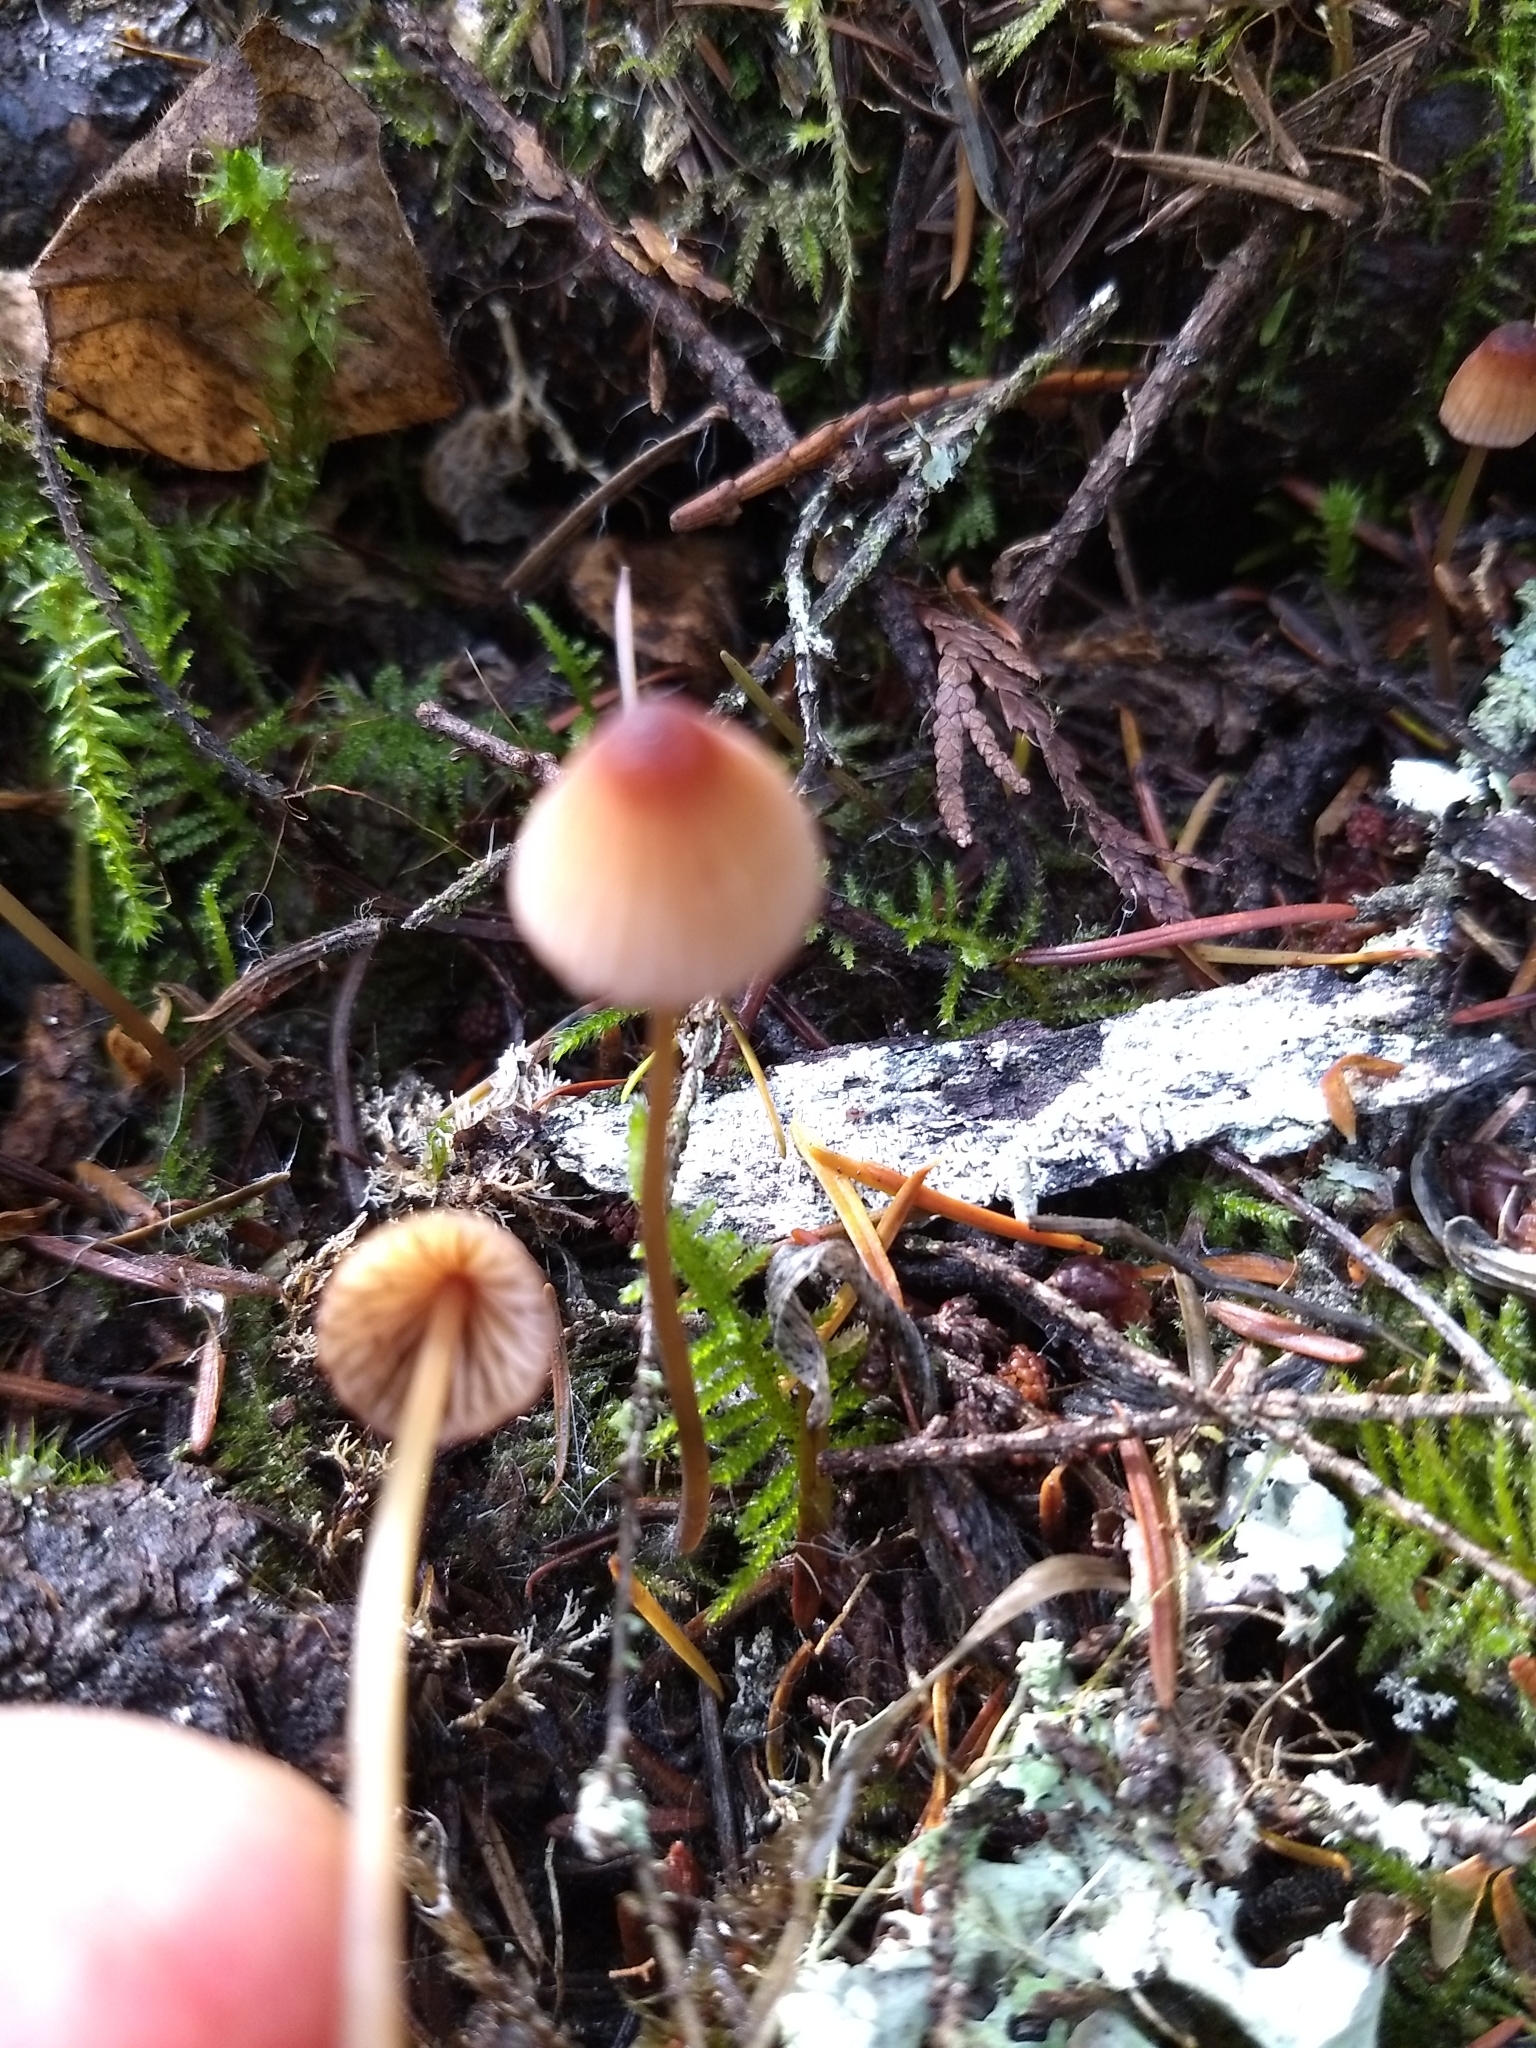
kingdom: Fungi
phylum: Basidiomycota
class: Agaricomycetes
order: Agaricales
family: Mycenaceae
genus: Mycena
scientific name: Mycena sanguinolenta
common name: Bleeding bonnet
